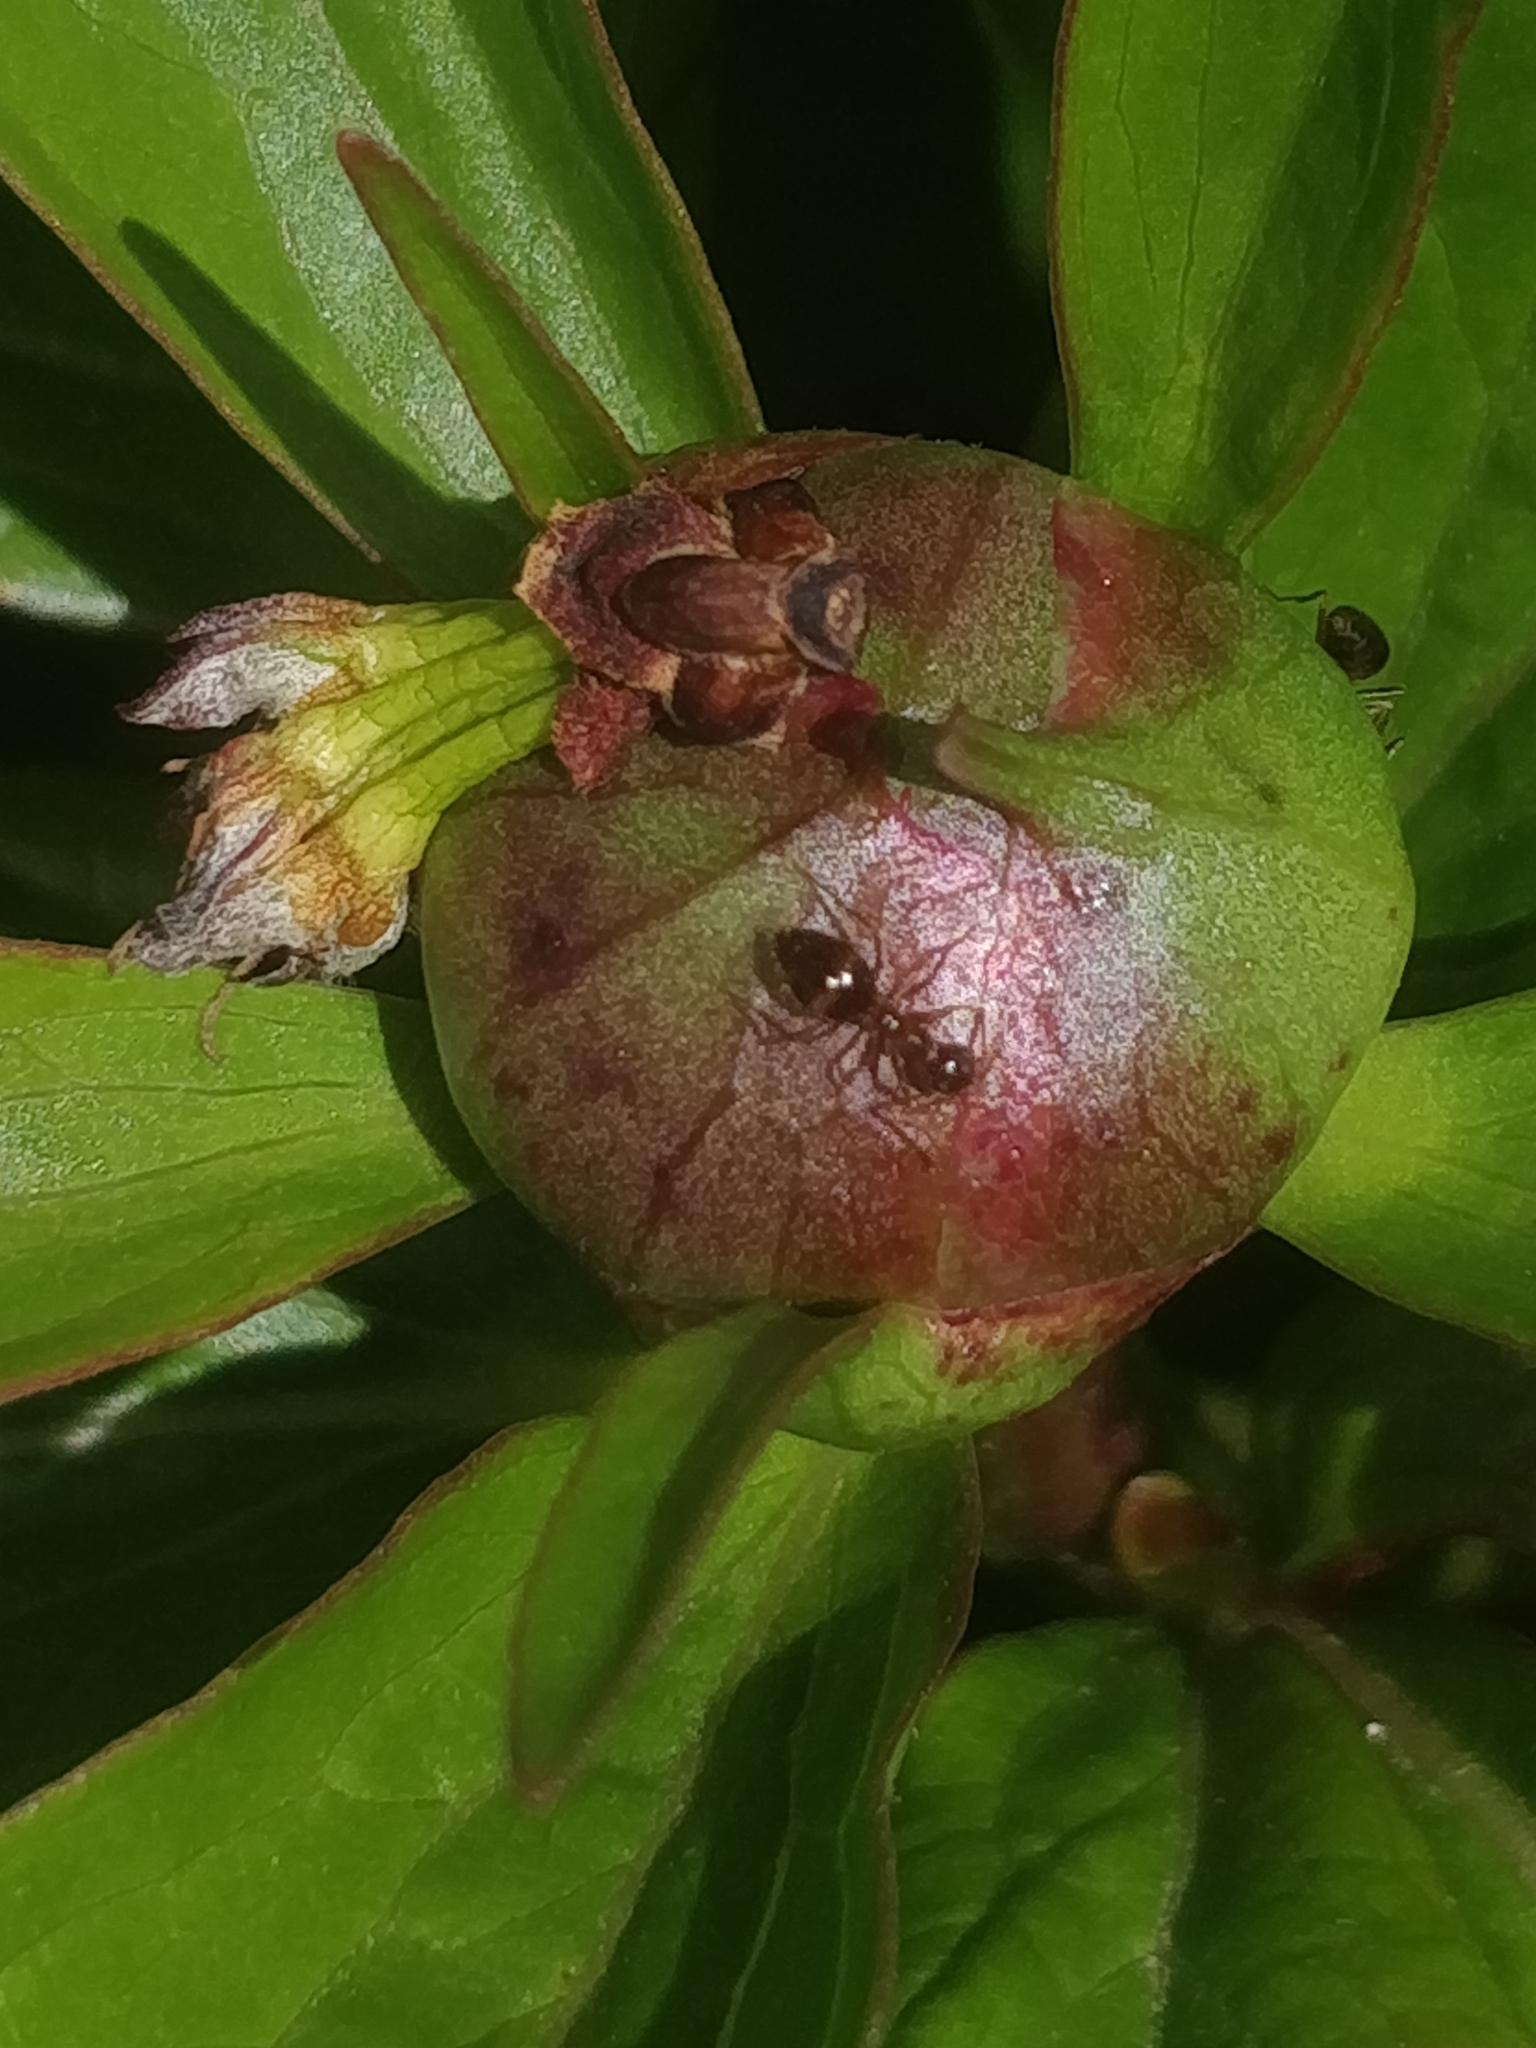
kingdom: Animalia
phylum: Arthropoda
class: Insecta
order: Hymenoptera
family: Formicidae
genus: Prenolepis
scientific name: Prenolepis imparis
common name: Small honey ant
